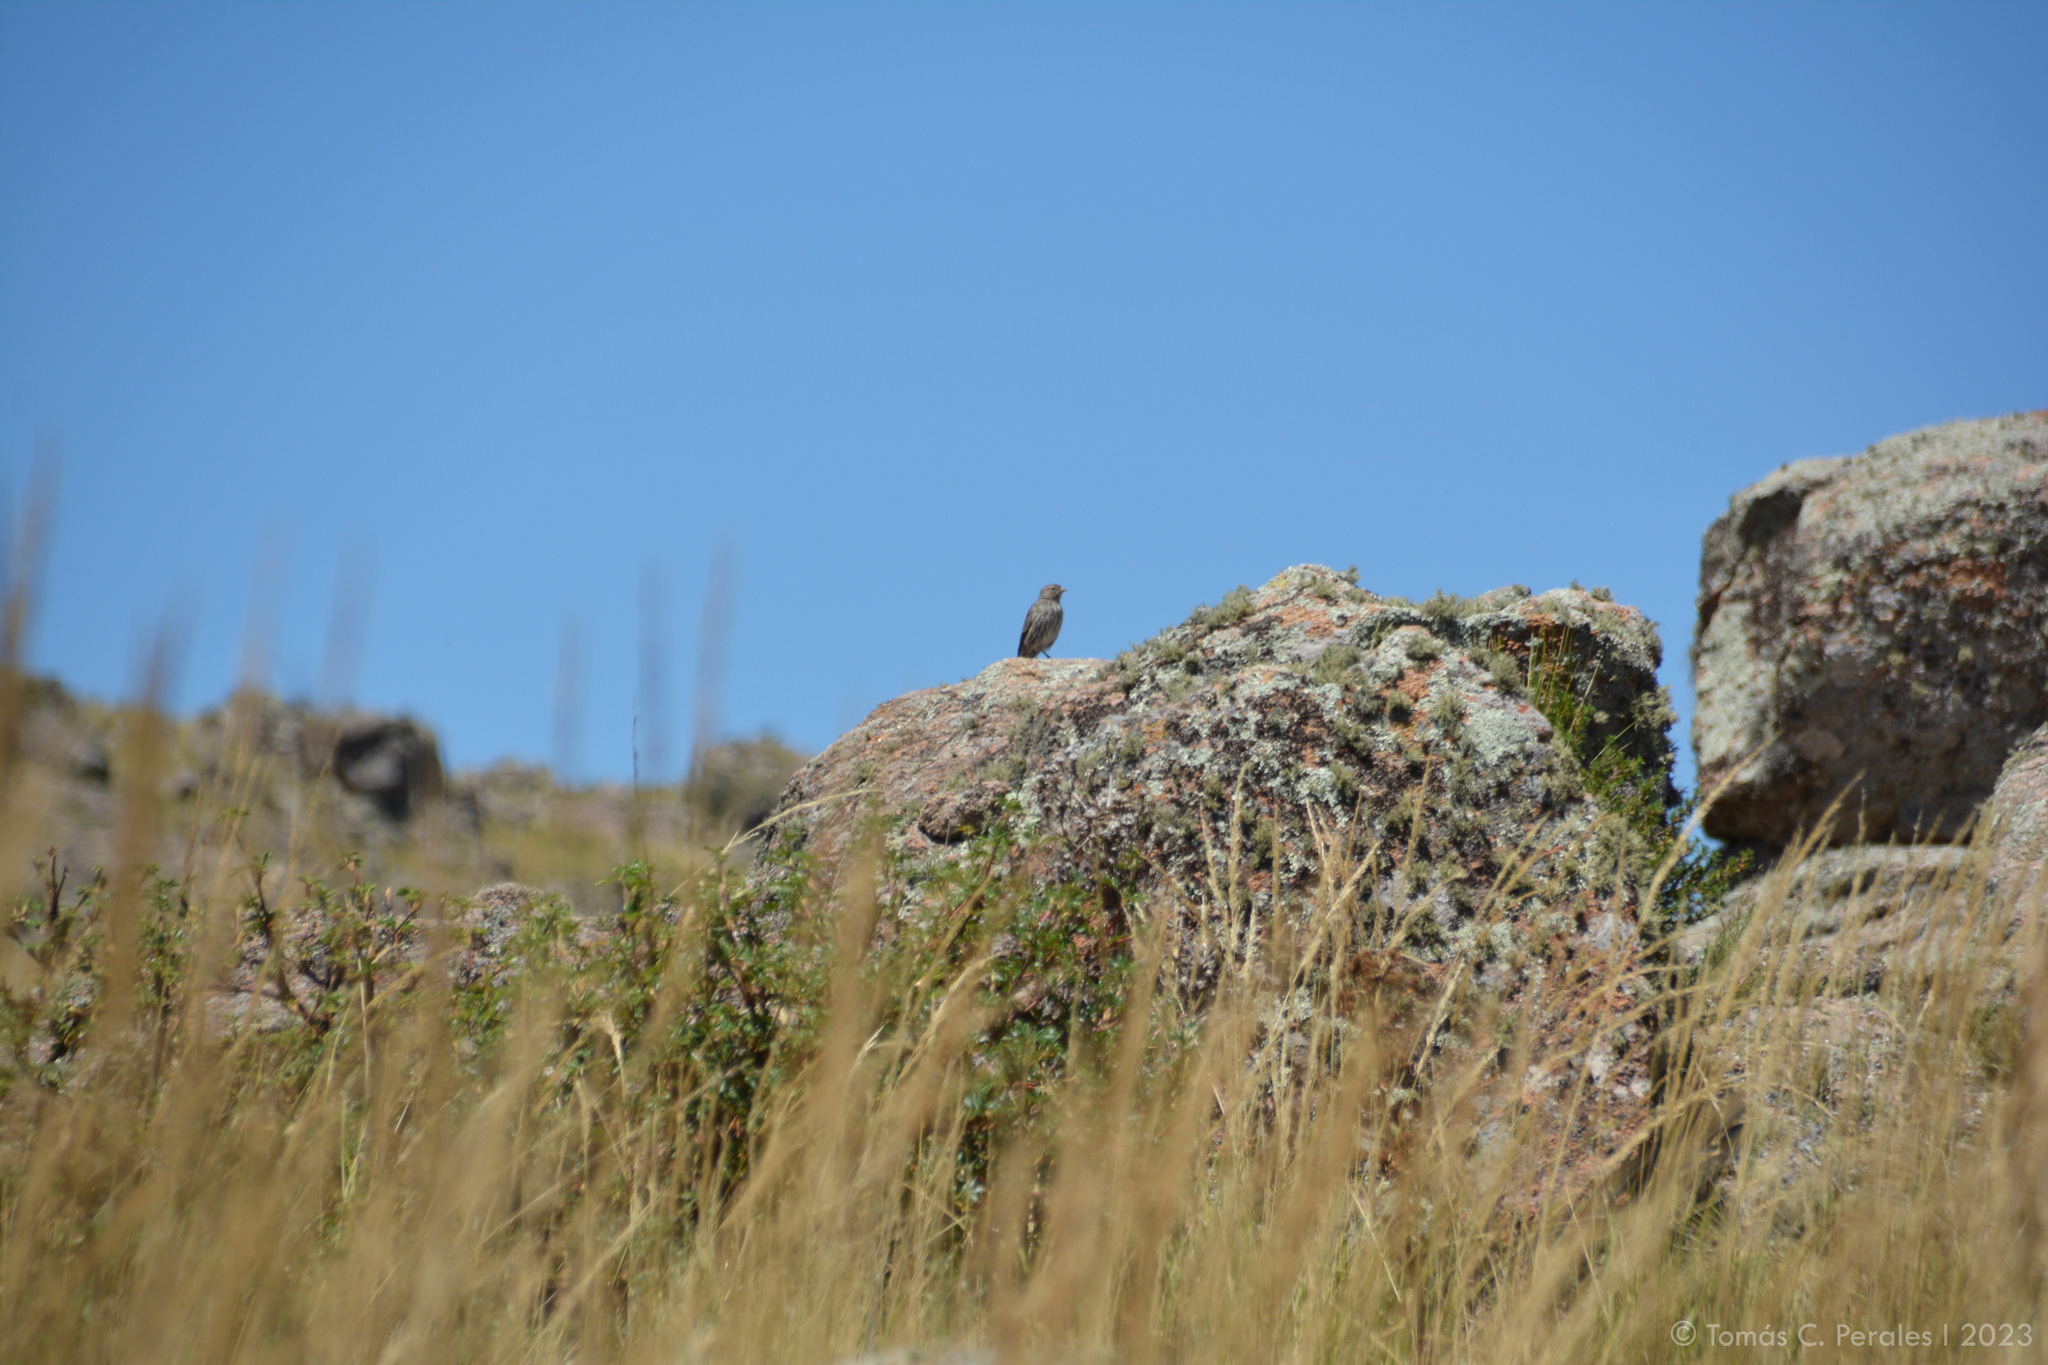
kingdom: Animalia
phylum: Chordata
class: Aves
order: Passeriformes
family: Thraupidae
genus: Geospizopsis
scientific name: Geospizopsis unicolor
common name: Plumbeous sierra-finch
